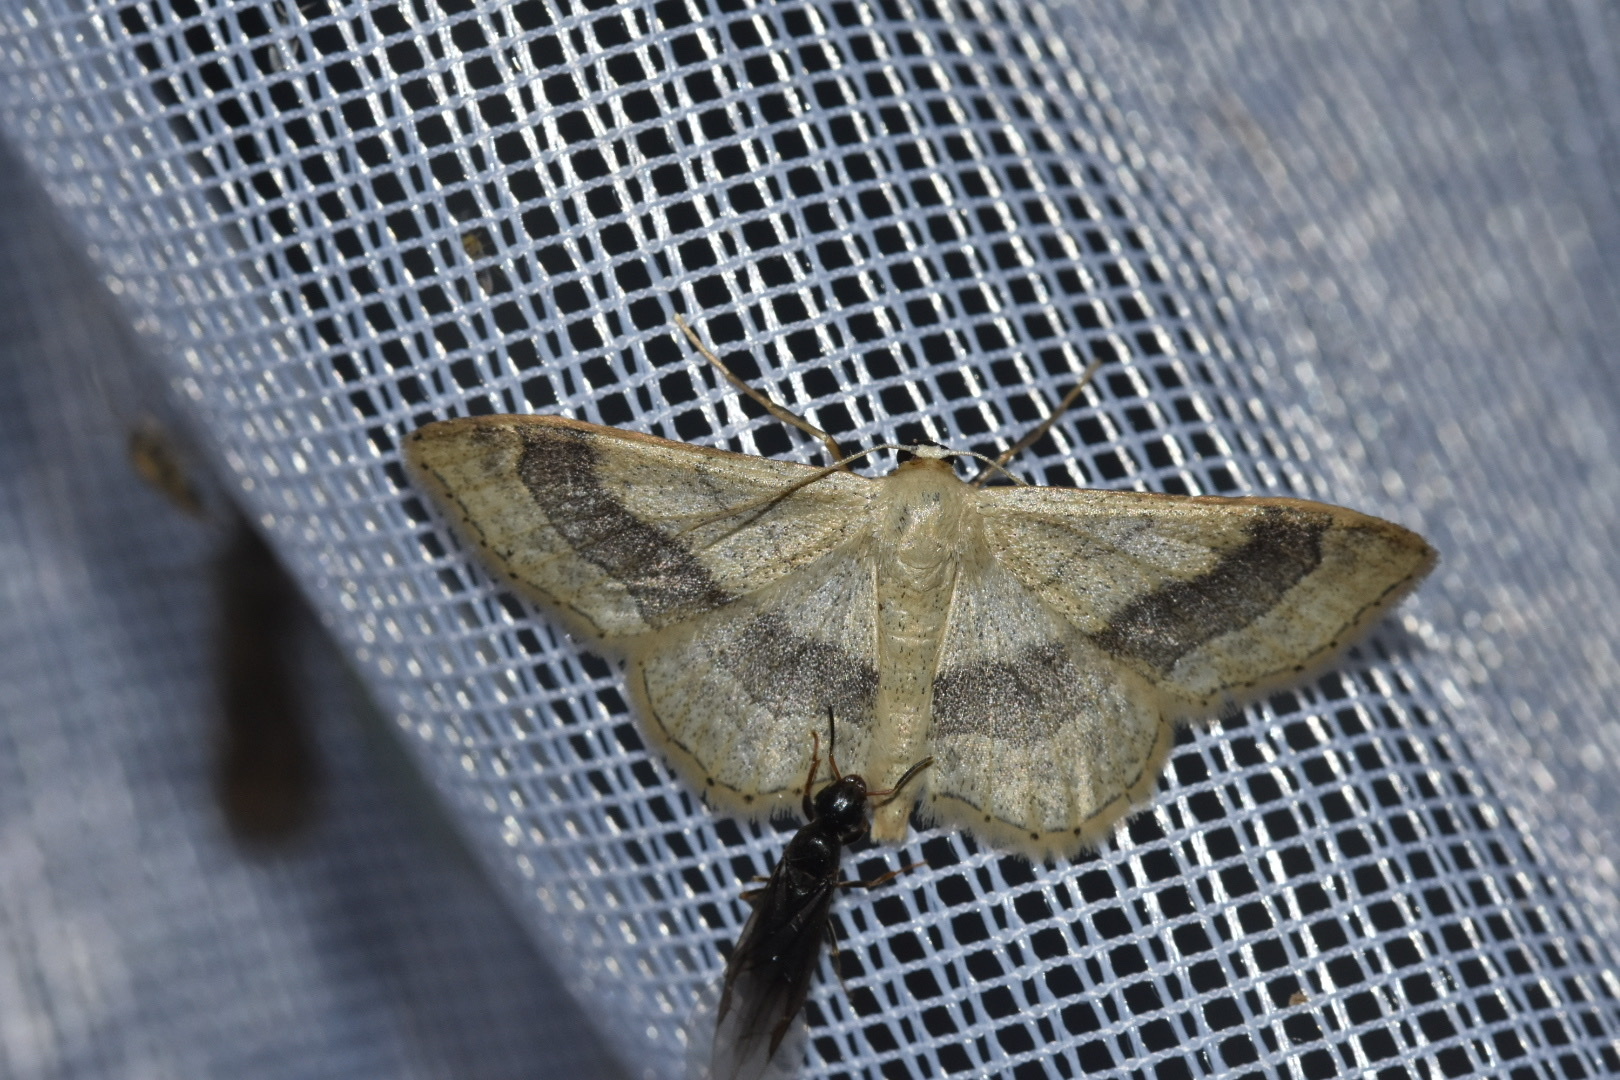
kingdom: Animalia
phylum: Arthropoda
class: Insecta
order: Lepidoptera
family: Geometridae
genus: Idaea
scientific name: Idaea aversata
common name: Riband wave
